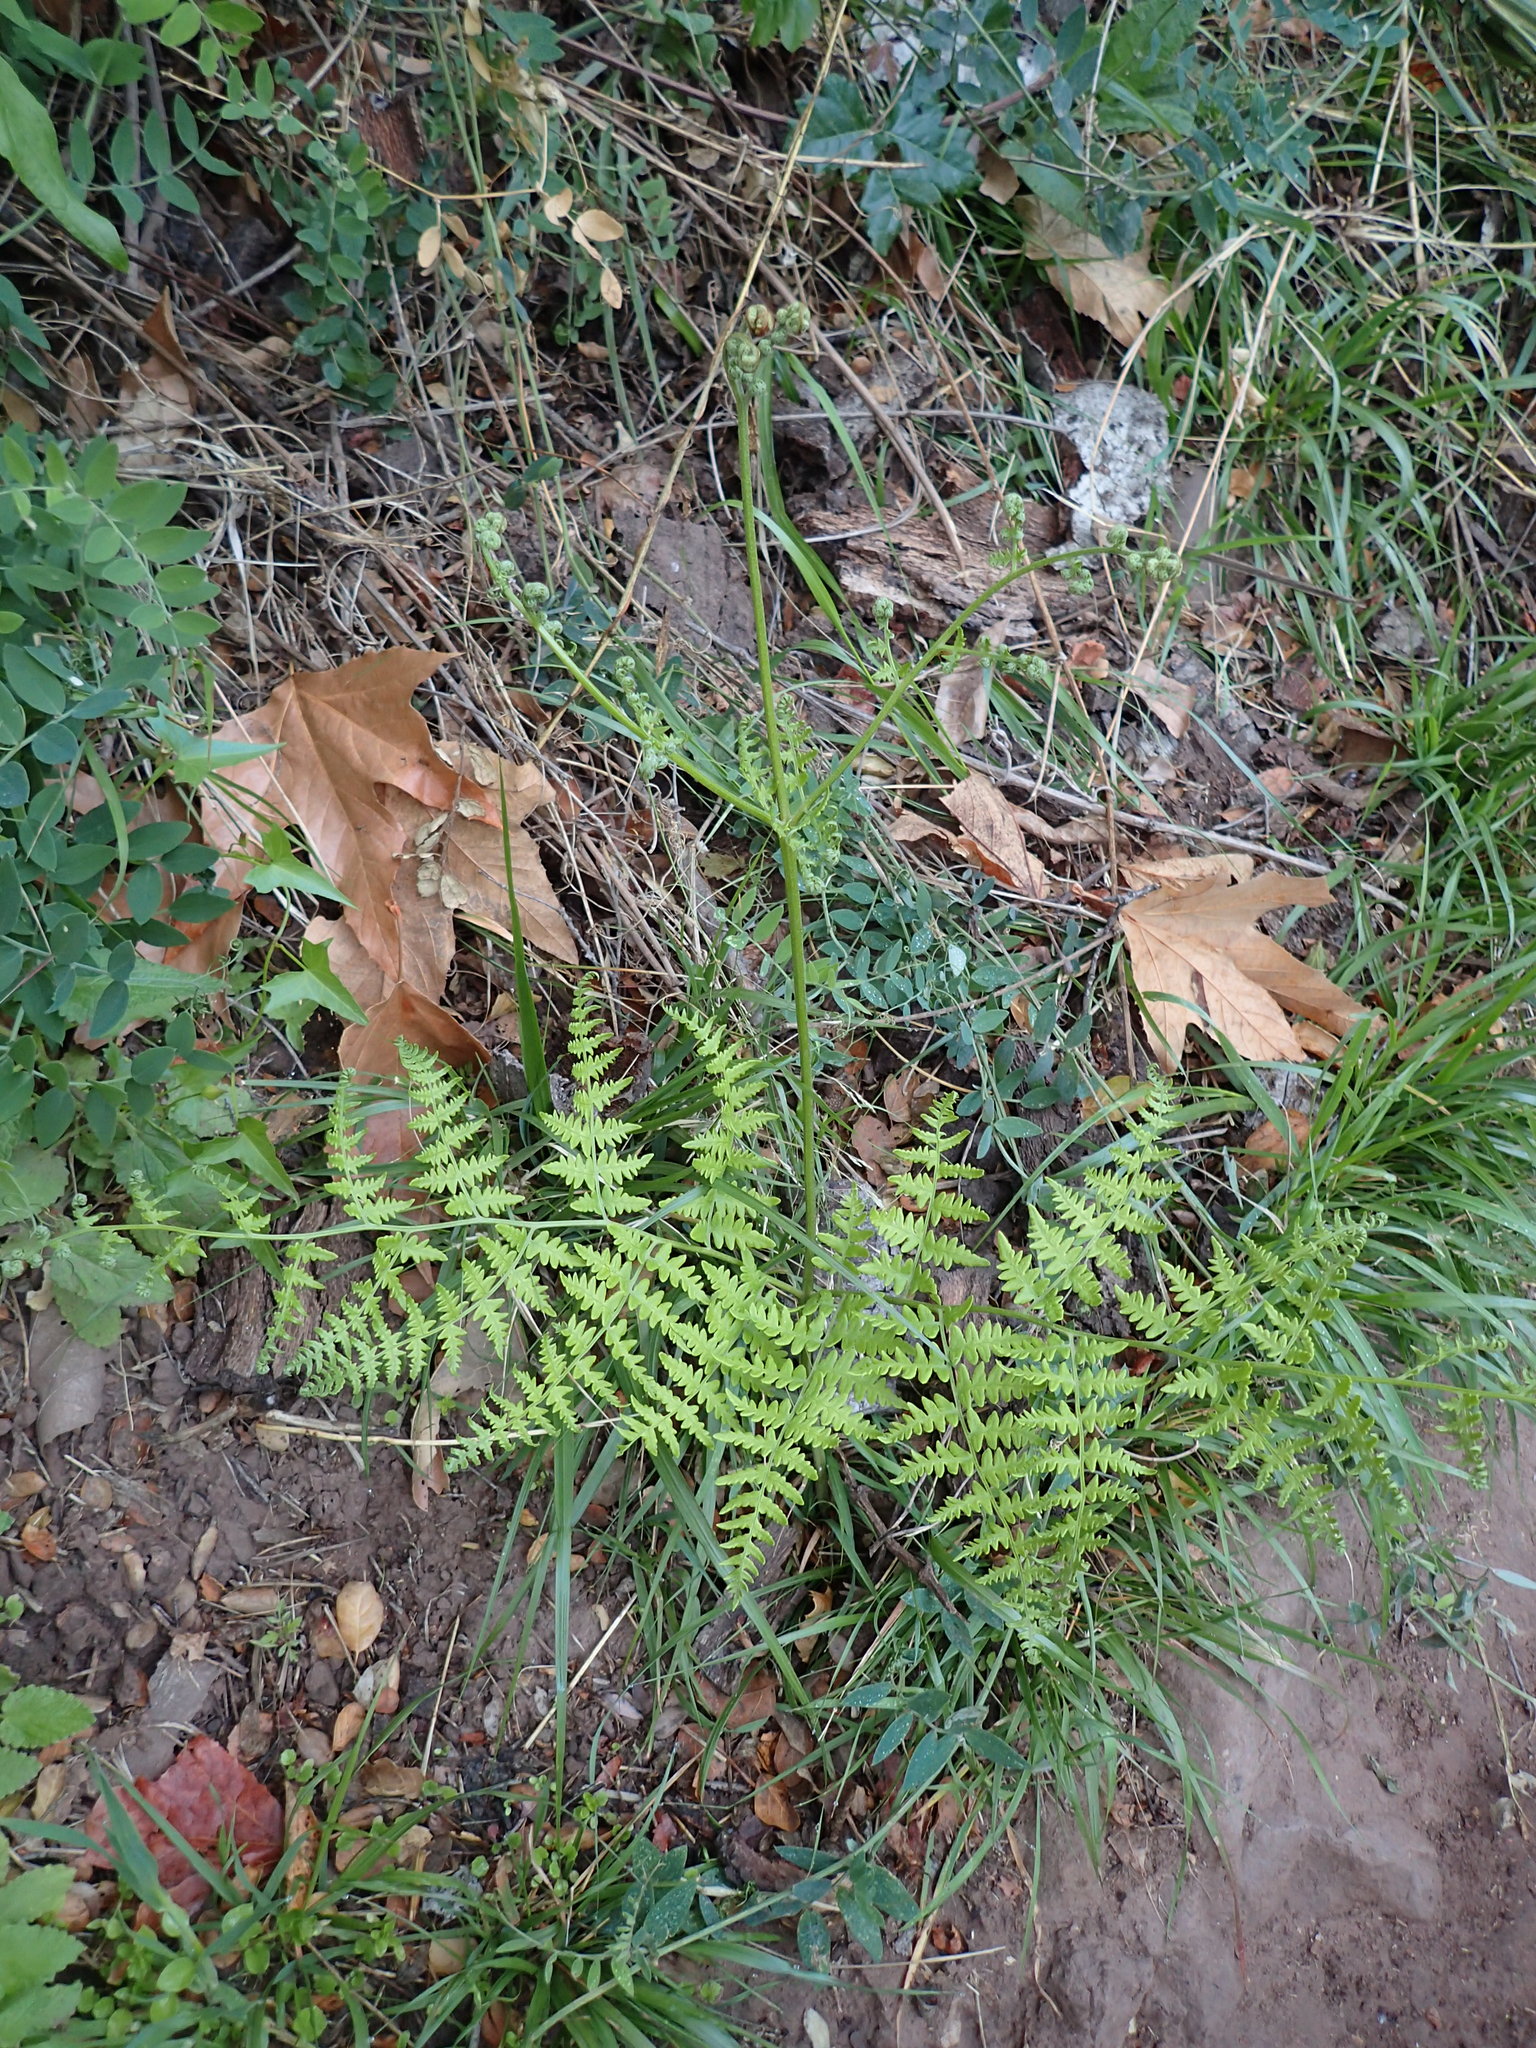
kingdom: Plantae
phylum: Tracheophyta
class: Polypodiopsida
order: Polypodiales
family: Dennstaedtiaceae
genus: Pteridium
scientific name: Pteridium aquilinum
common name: Bracken
